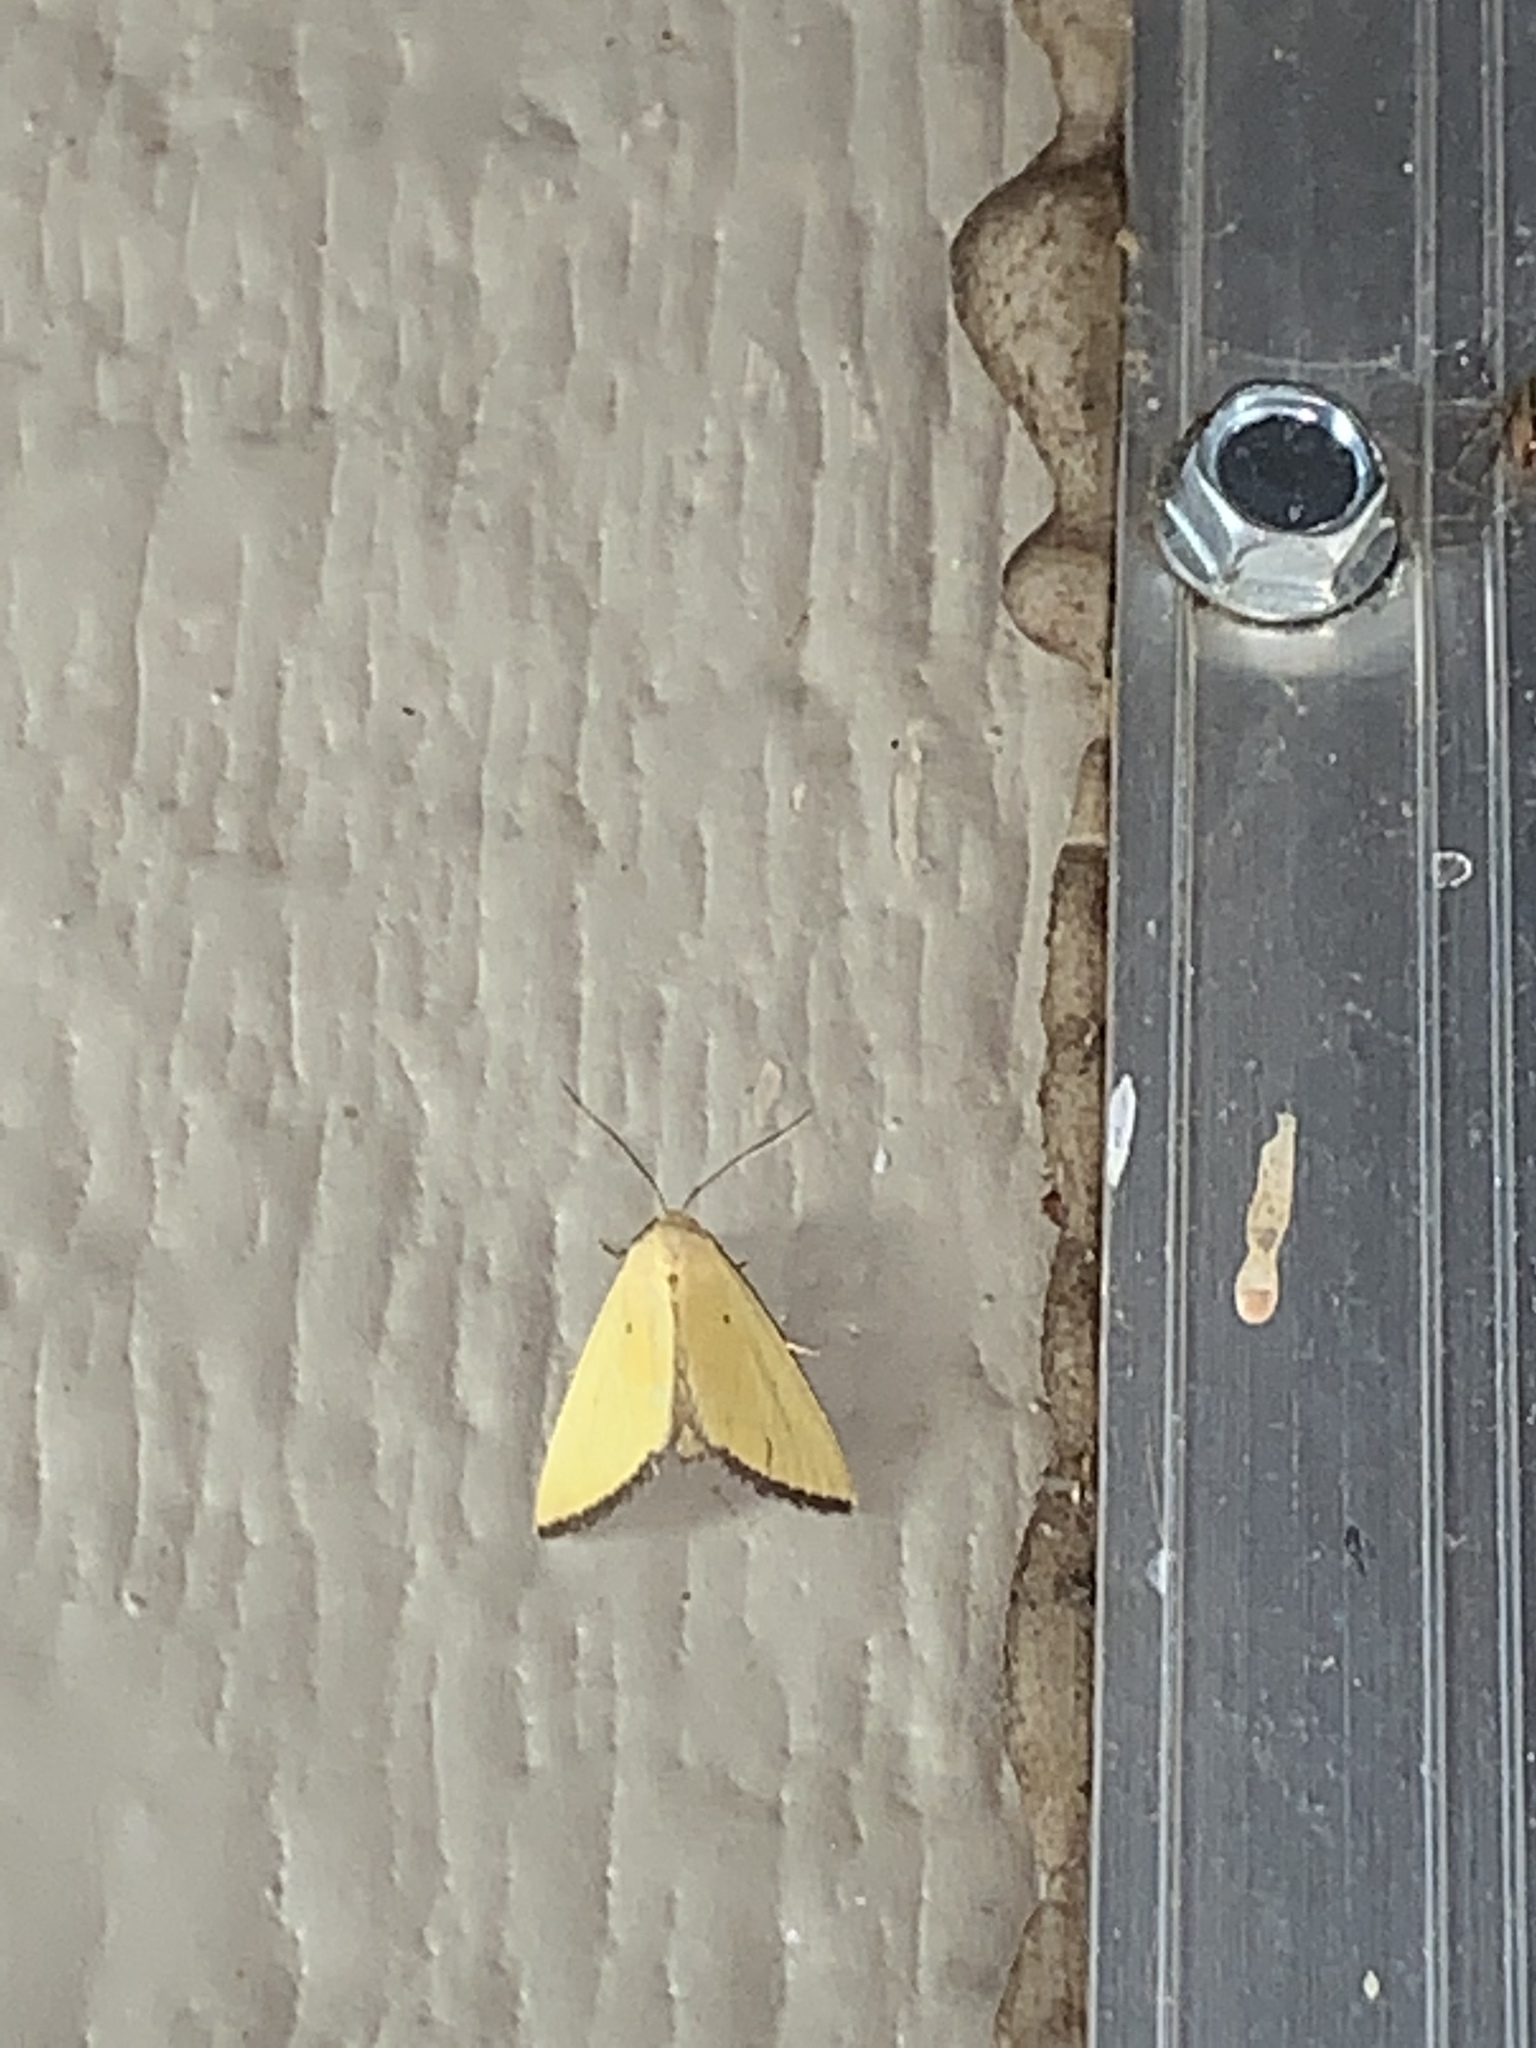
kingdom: Animalia
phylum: Arthropoda
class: Insecta
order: Lepidoptera
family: Noctuidae
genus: Marimatha
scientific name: Marimatha nigrofimbria
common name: Black-bordered lemon moth
